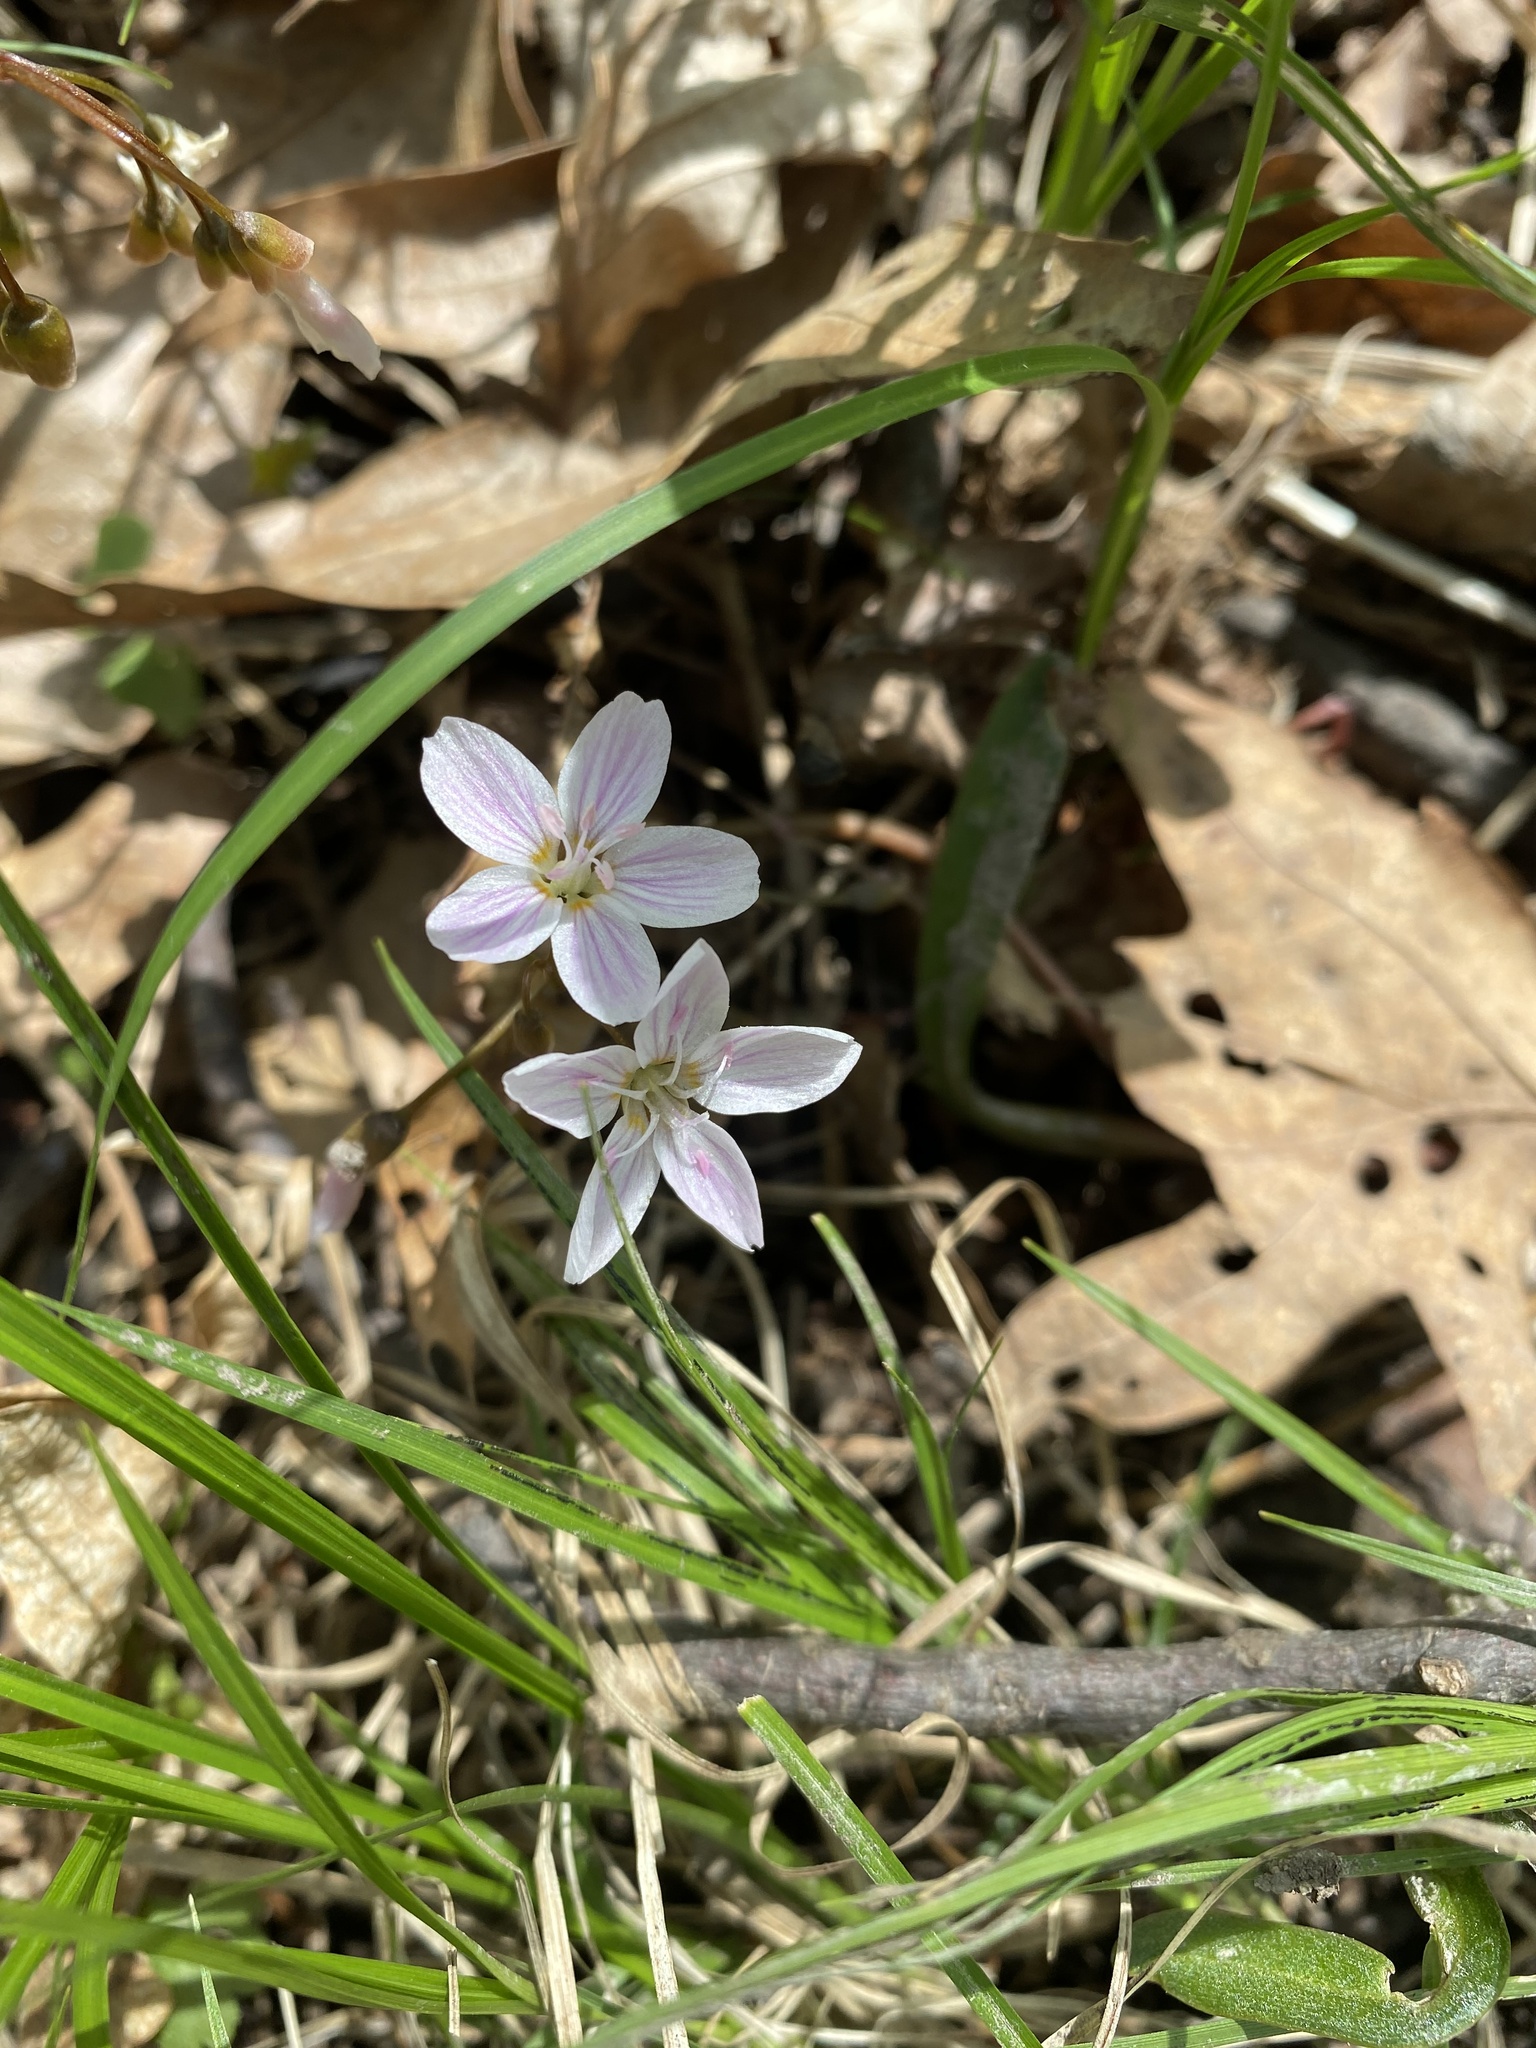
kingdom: Plantae
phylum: Tracheophyta
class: Magnoliopsida
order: Caryophyllales
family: Montiaceae
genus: Claytonia
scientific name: Claytonia virginica
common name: Virginia springbeauty
